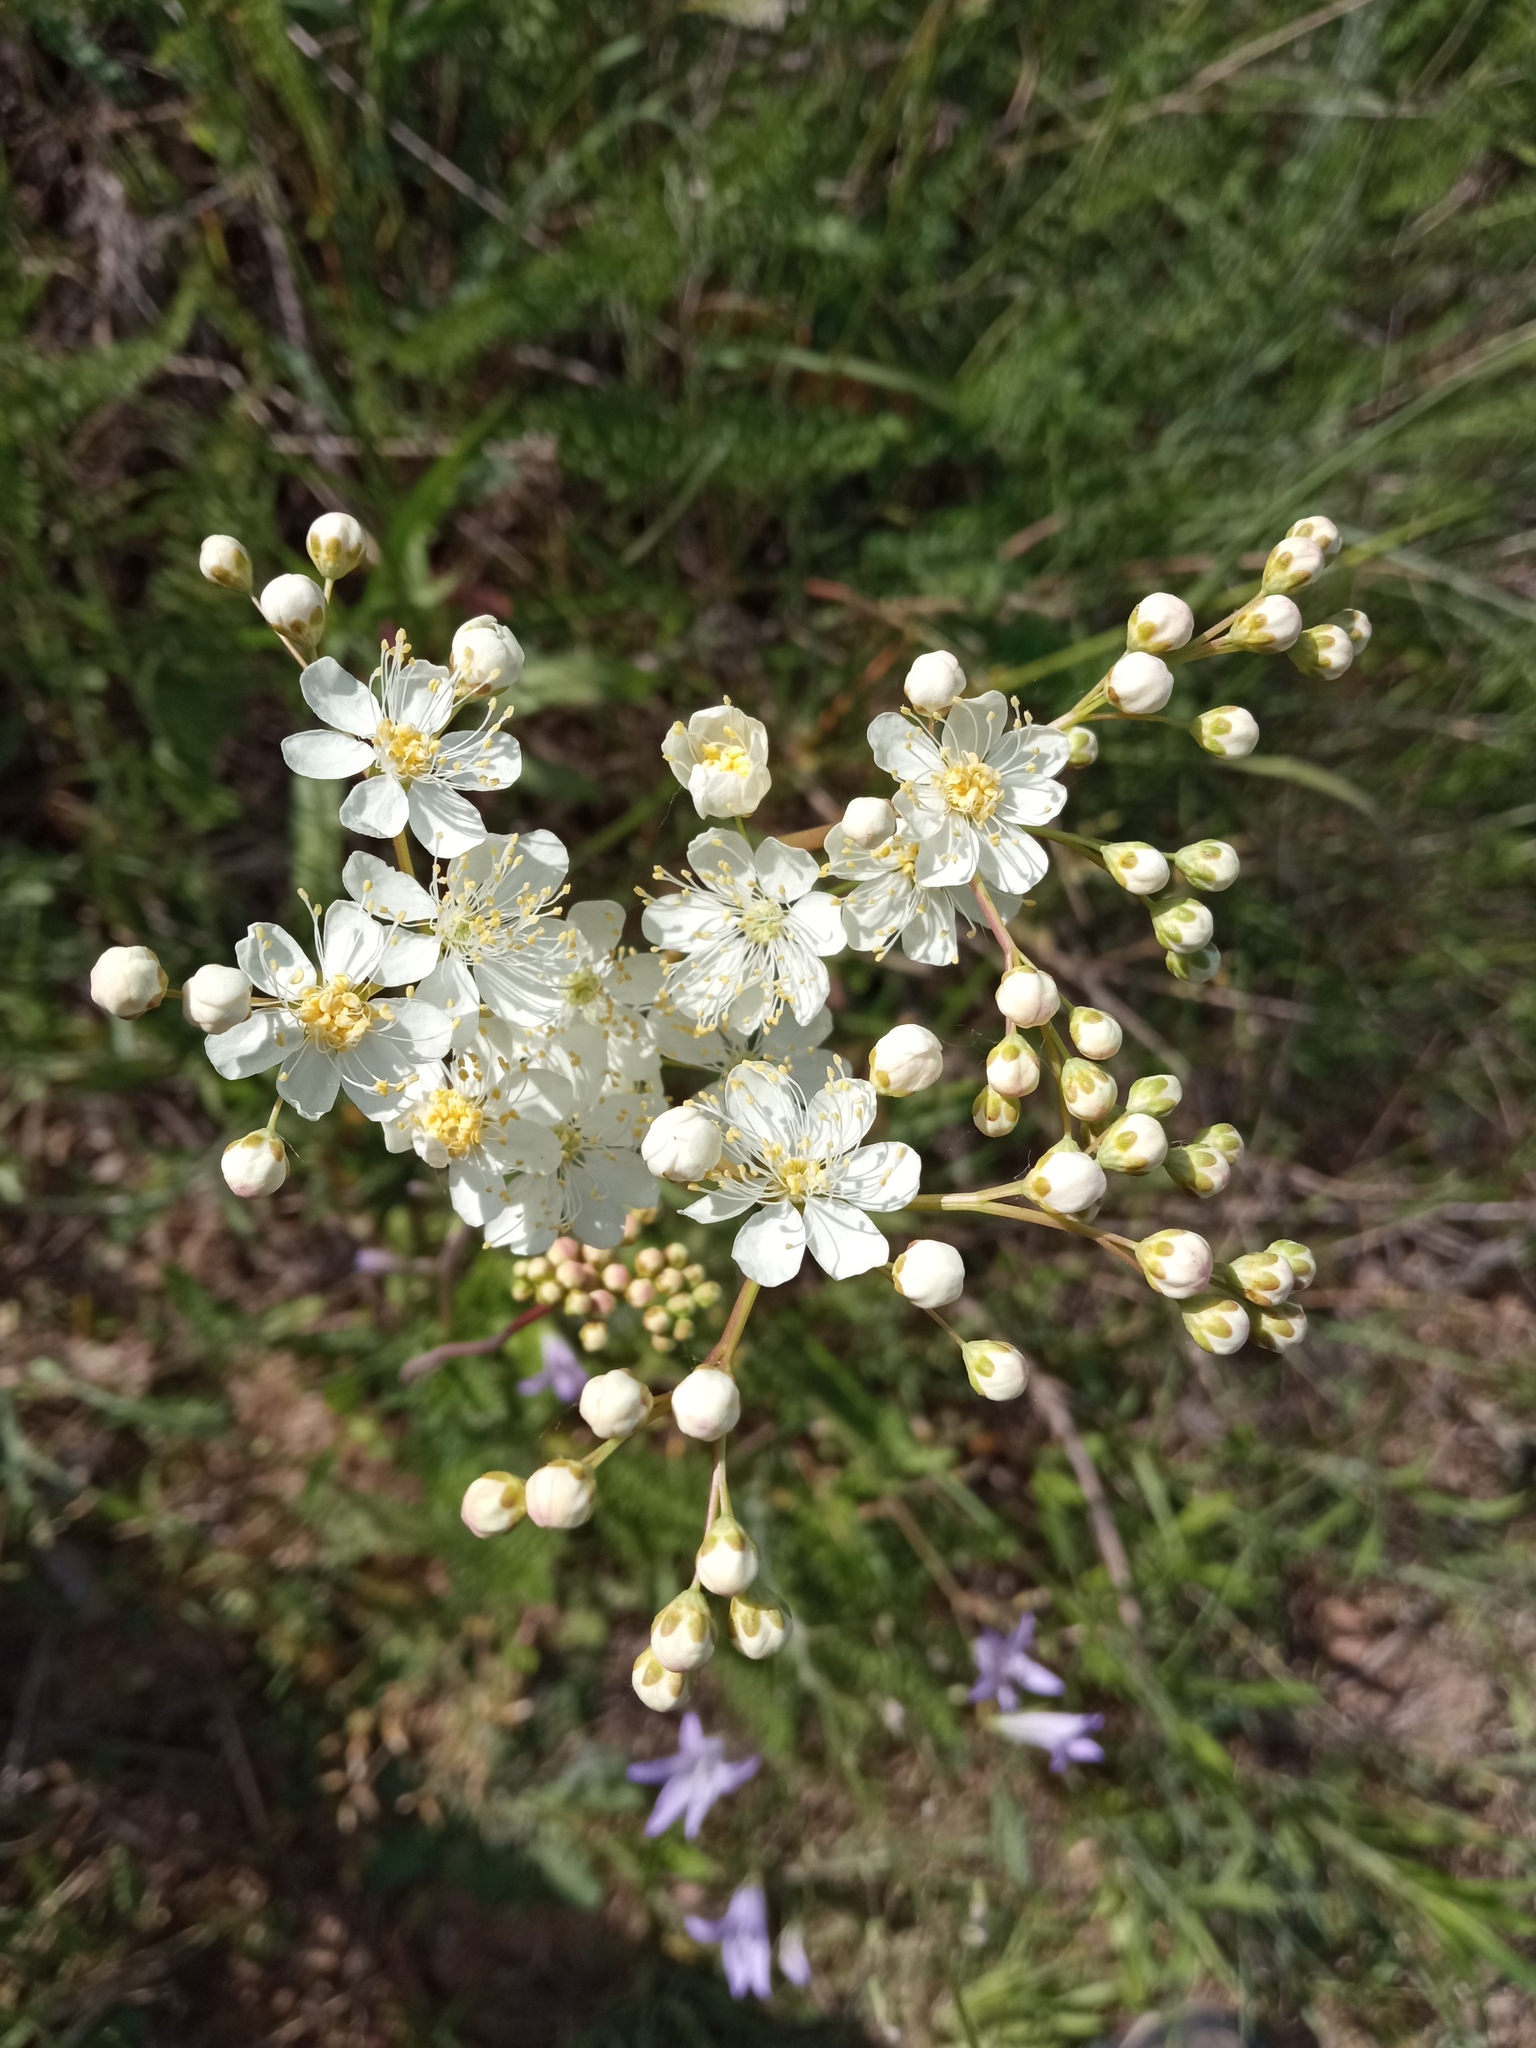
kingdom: Plantae
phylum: Tracheophyta
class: Magnoliopsida
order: Rosales
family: Rosaceae
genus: Filipendula
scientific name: Filipendula vulgaris
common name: Dropwort
